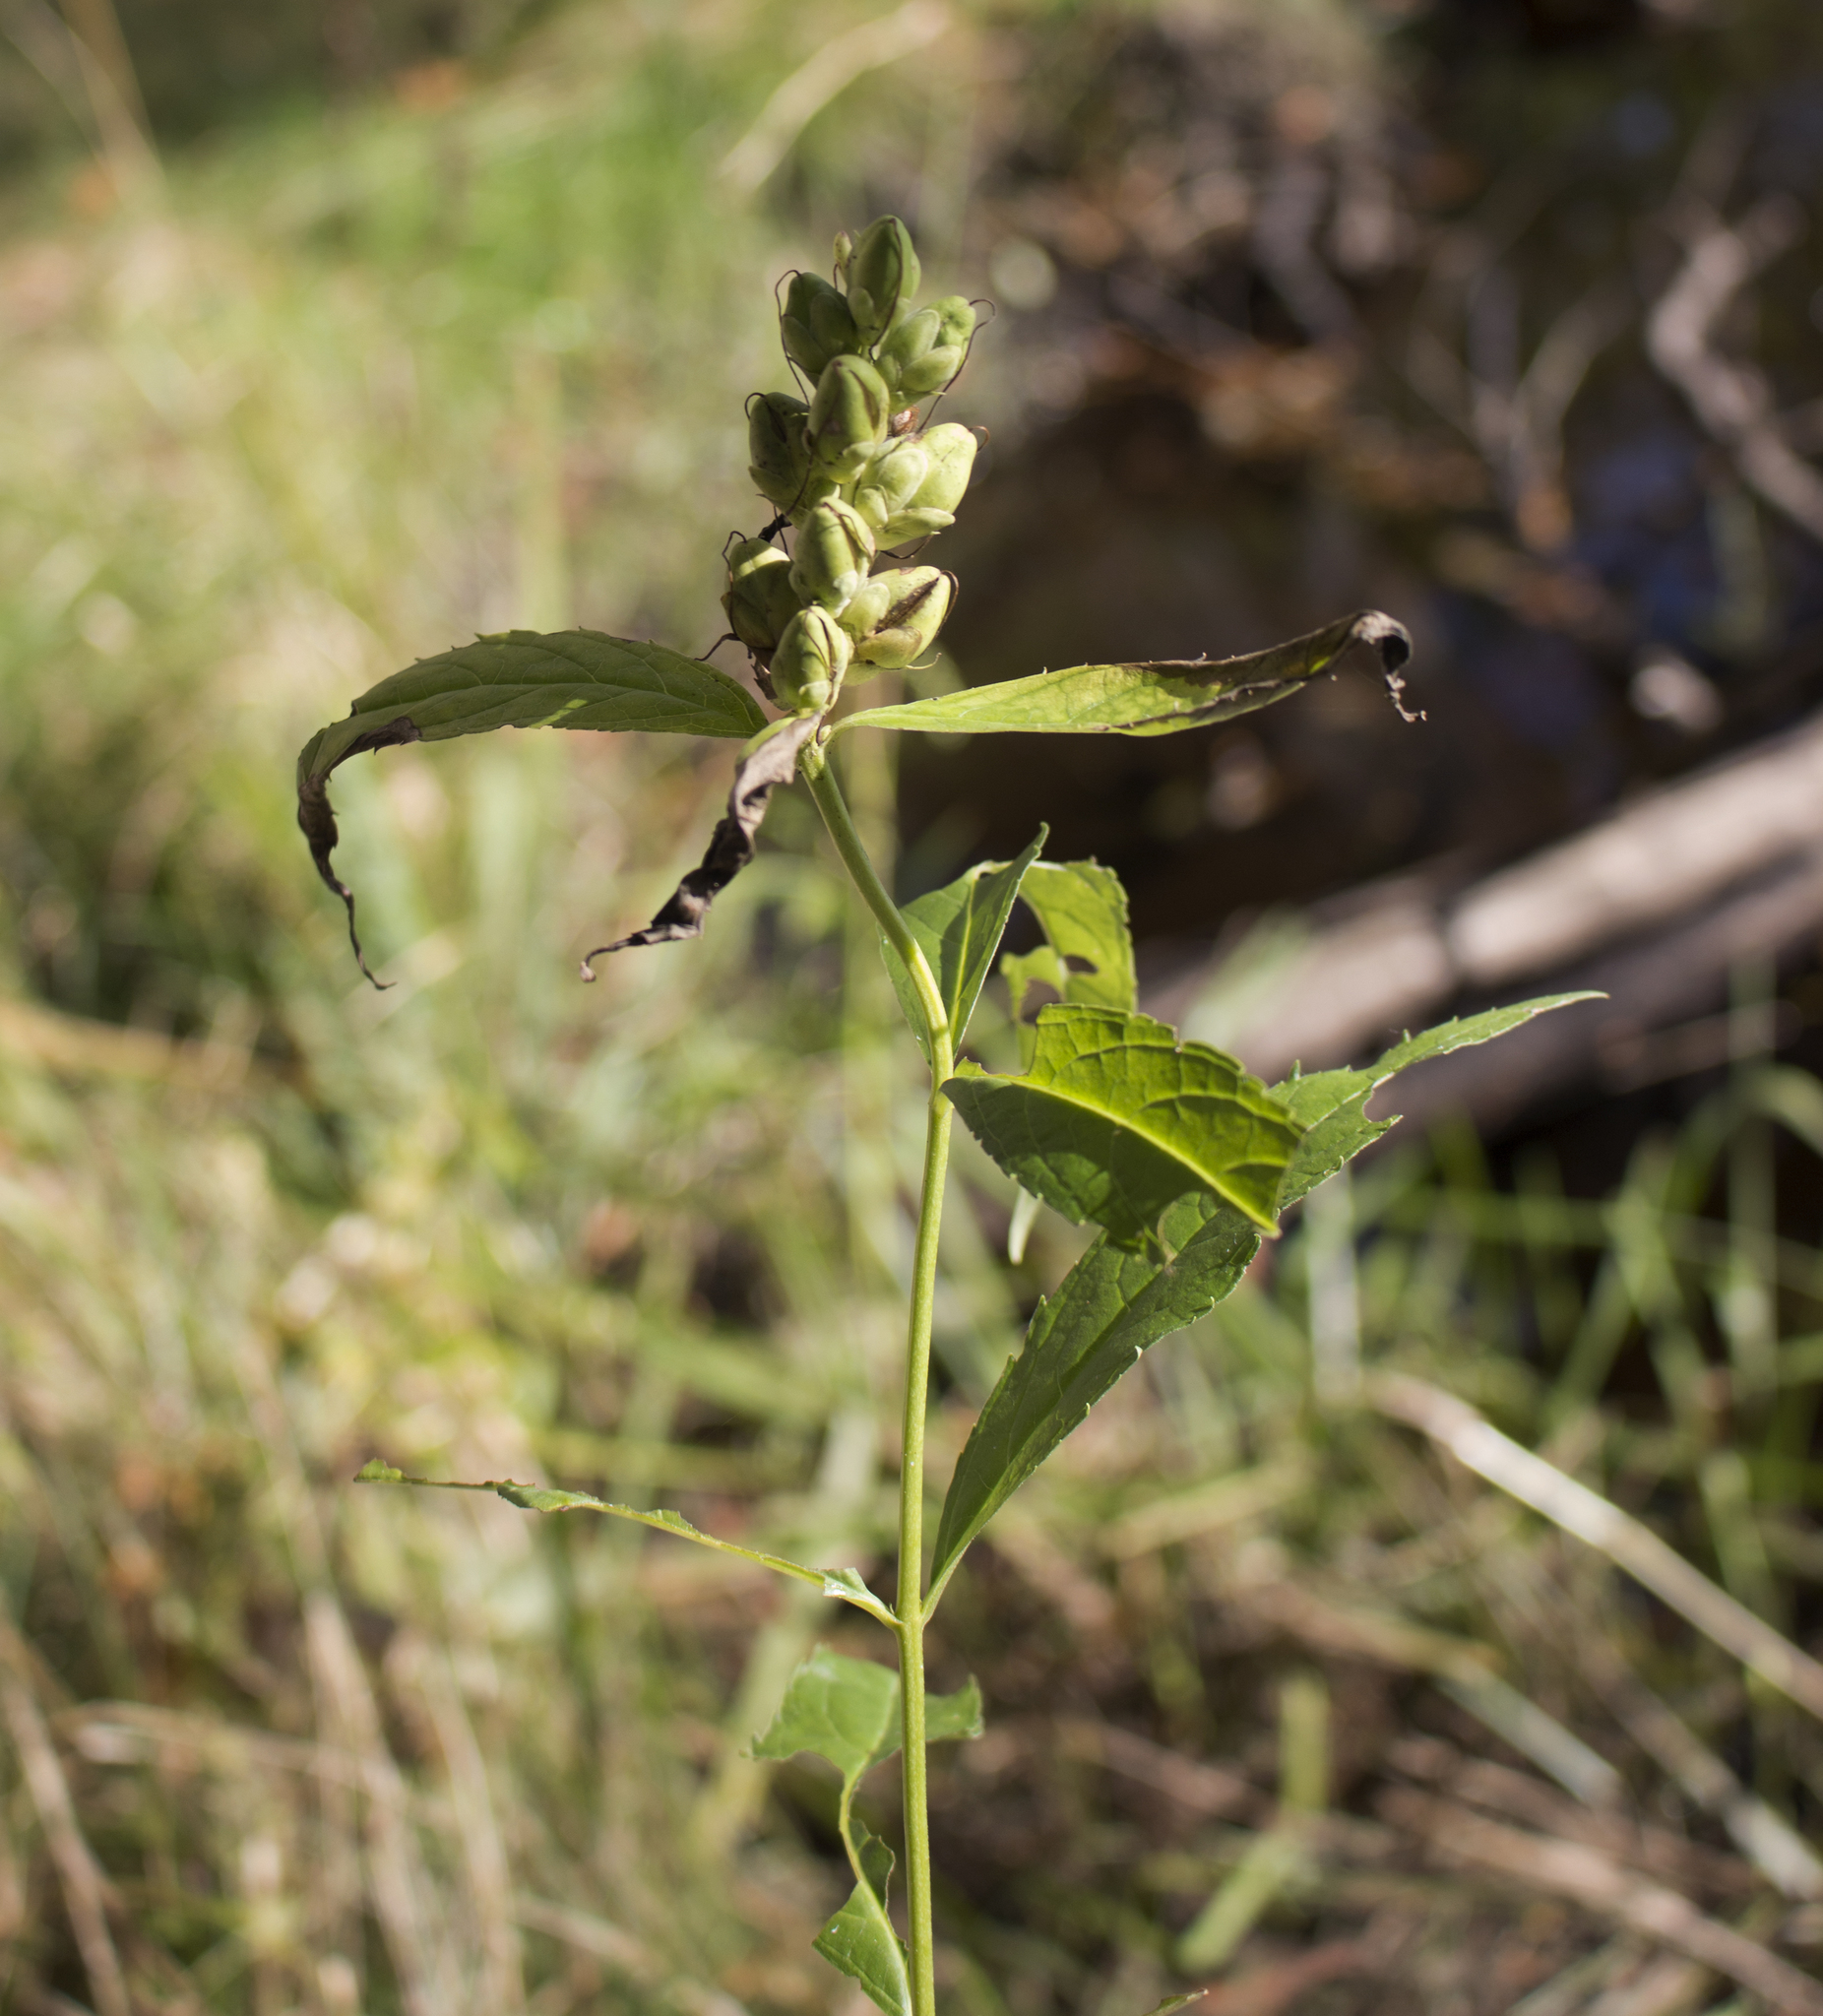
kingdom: Plantae
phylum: Tracheophyta
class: Magnoliopsida
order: Lamiales
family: Plantaginaceae
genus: Chelone
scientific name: Chelone glabra
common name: Snakehead
